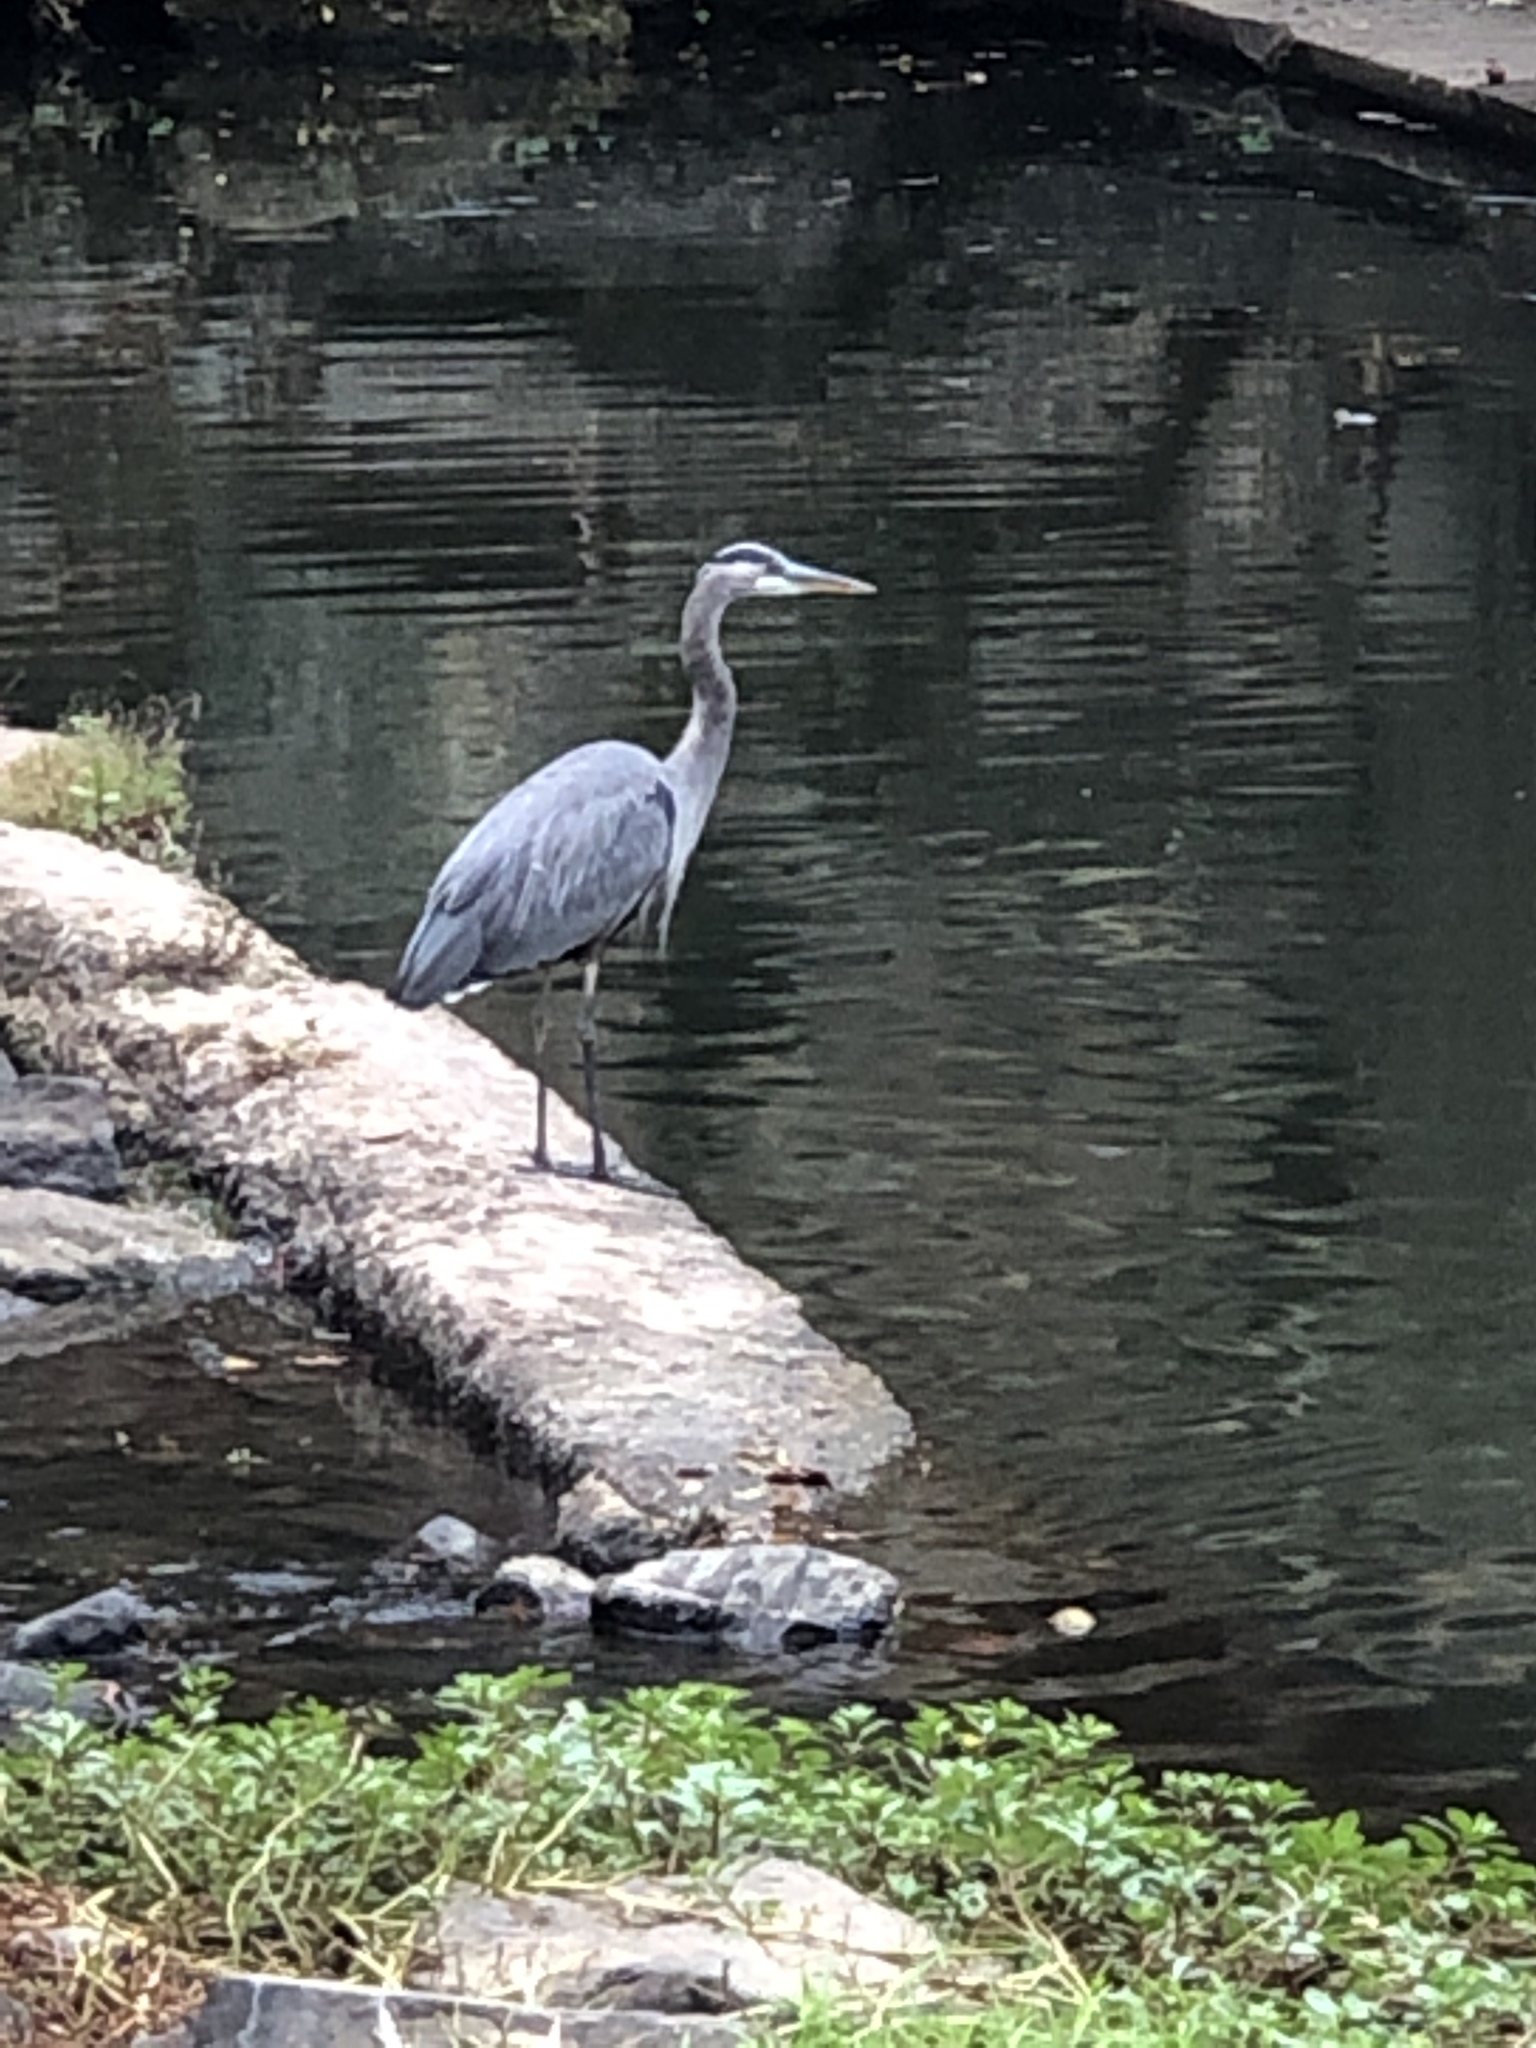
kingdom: Animalia
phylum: Chordata
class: Aves
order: Pelecaniformes
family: Ardeidae
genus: Ardea
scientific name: Ardea herodias
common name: Great blue heron
